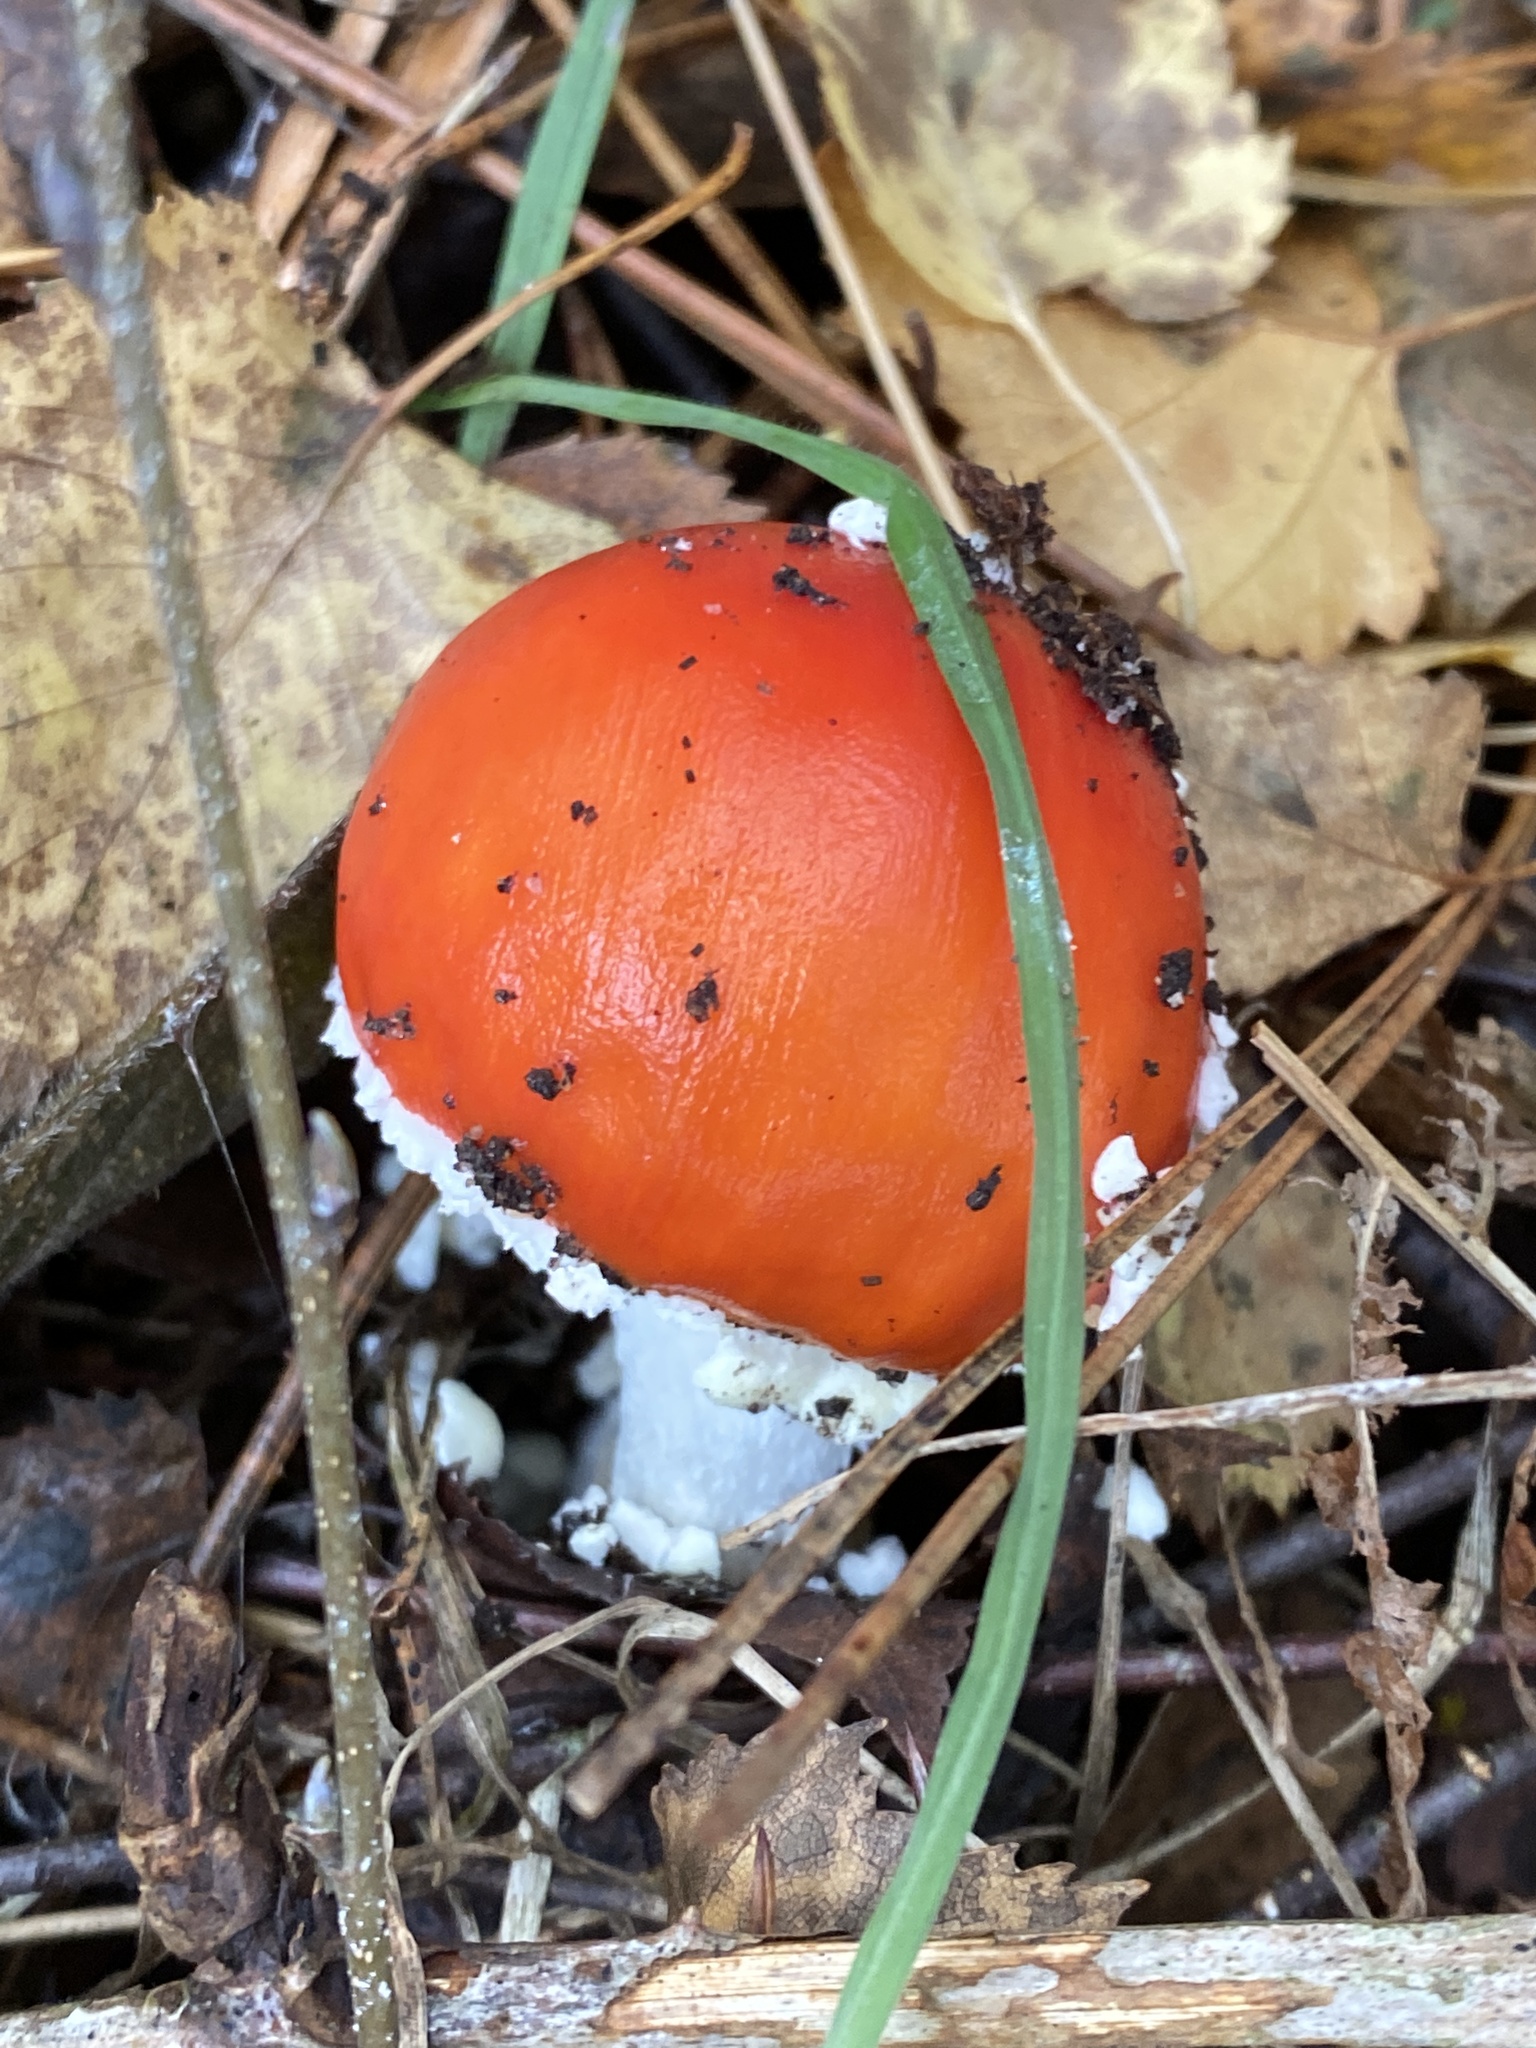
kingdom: Fungi
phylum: Basidiomycota
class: Agaricomycetes
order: Agaricales
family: Amanitaceae
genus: Amanita
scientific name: Amanita muscaria
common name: Fly agaric
